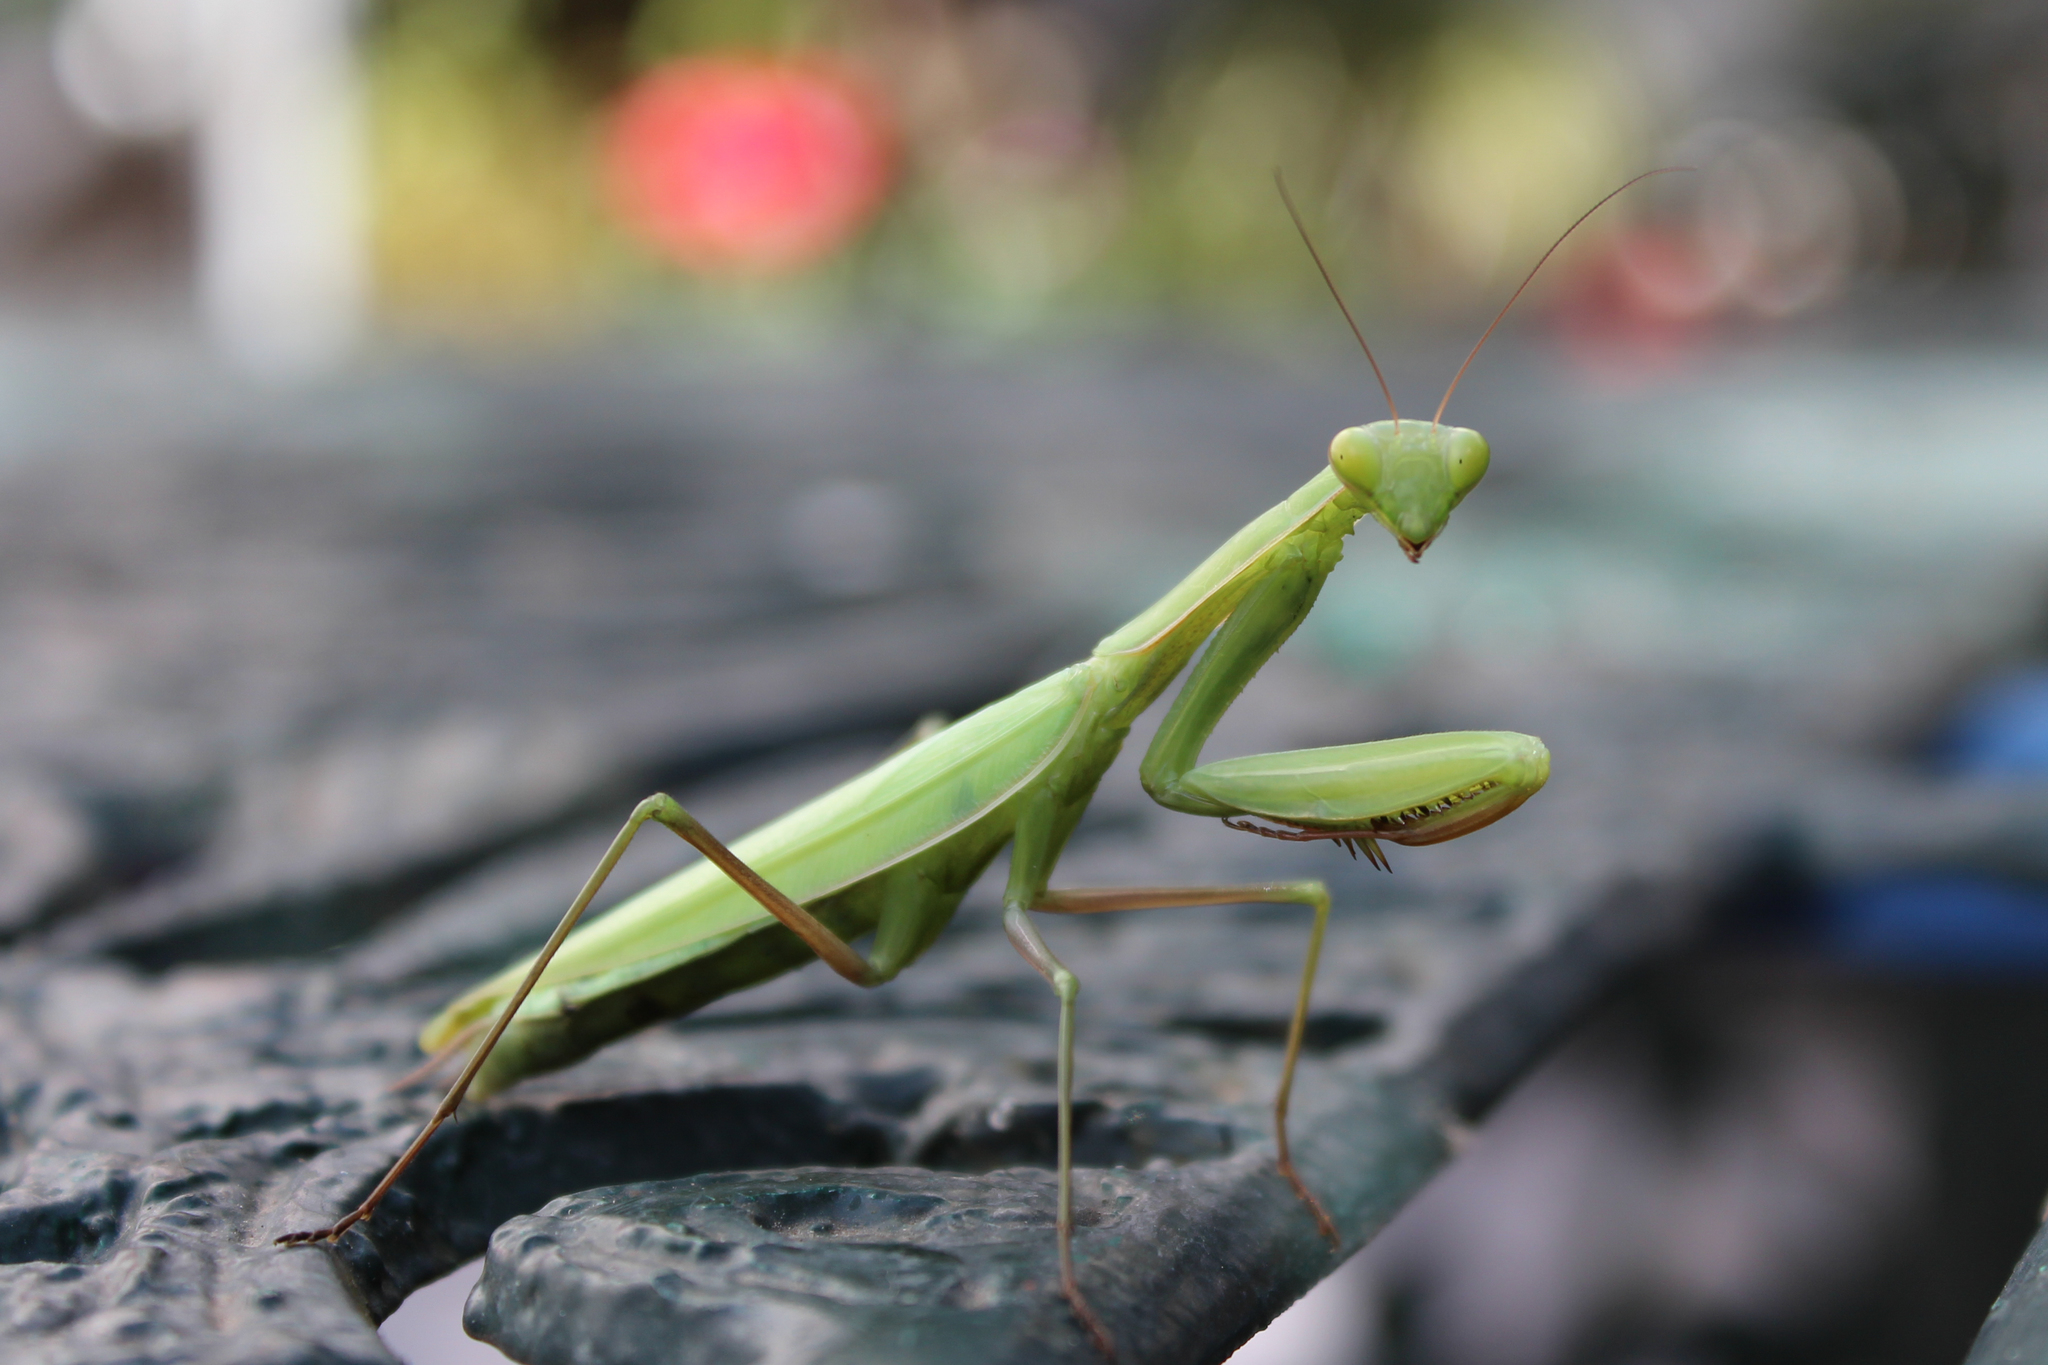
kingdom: Animalia
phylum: Arthropoda
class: Insecta
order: Mantodea
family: Mantidae
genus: Mantis
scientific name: Mantis religiosa
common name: Praying mantis
